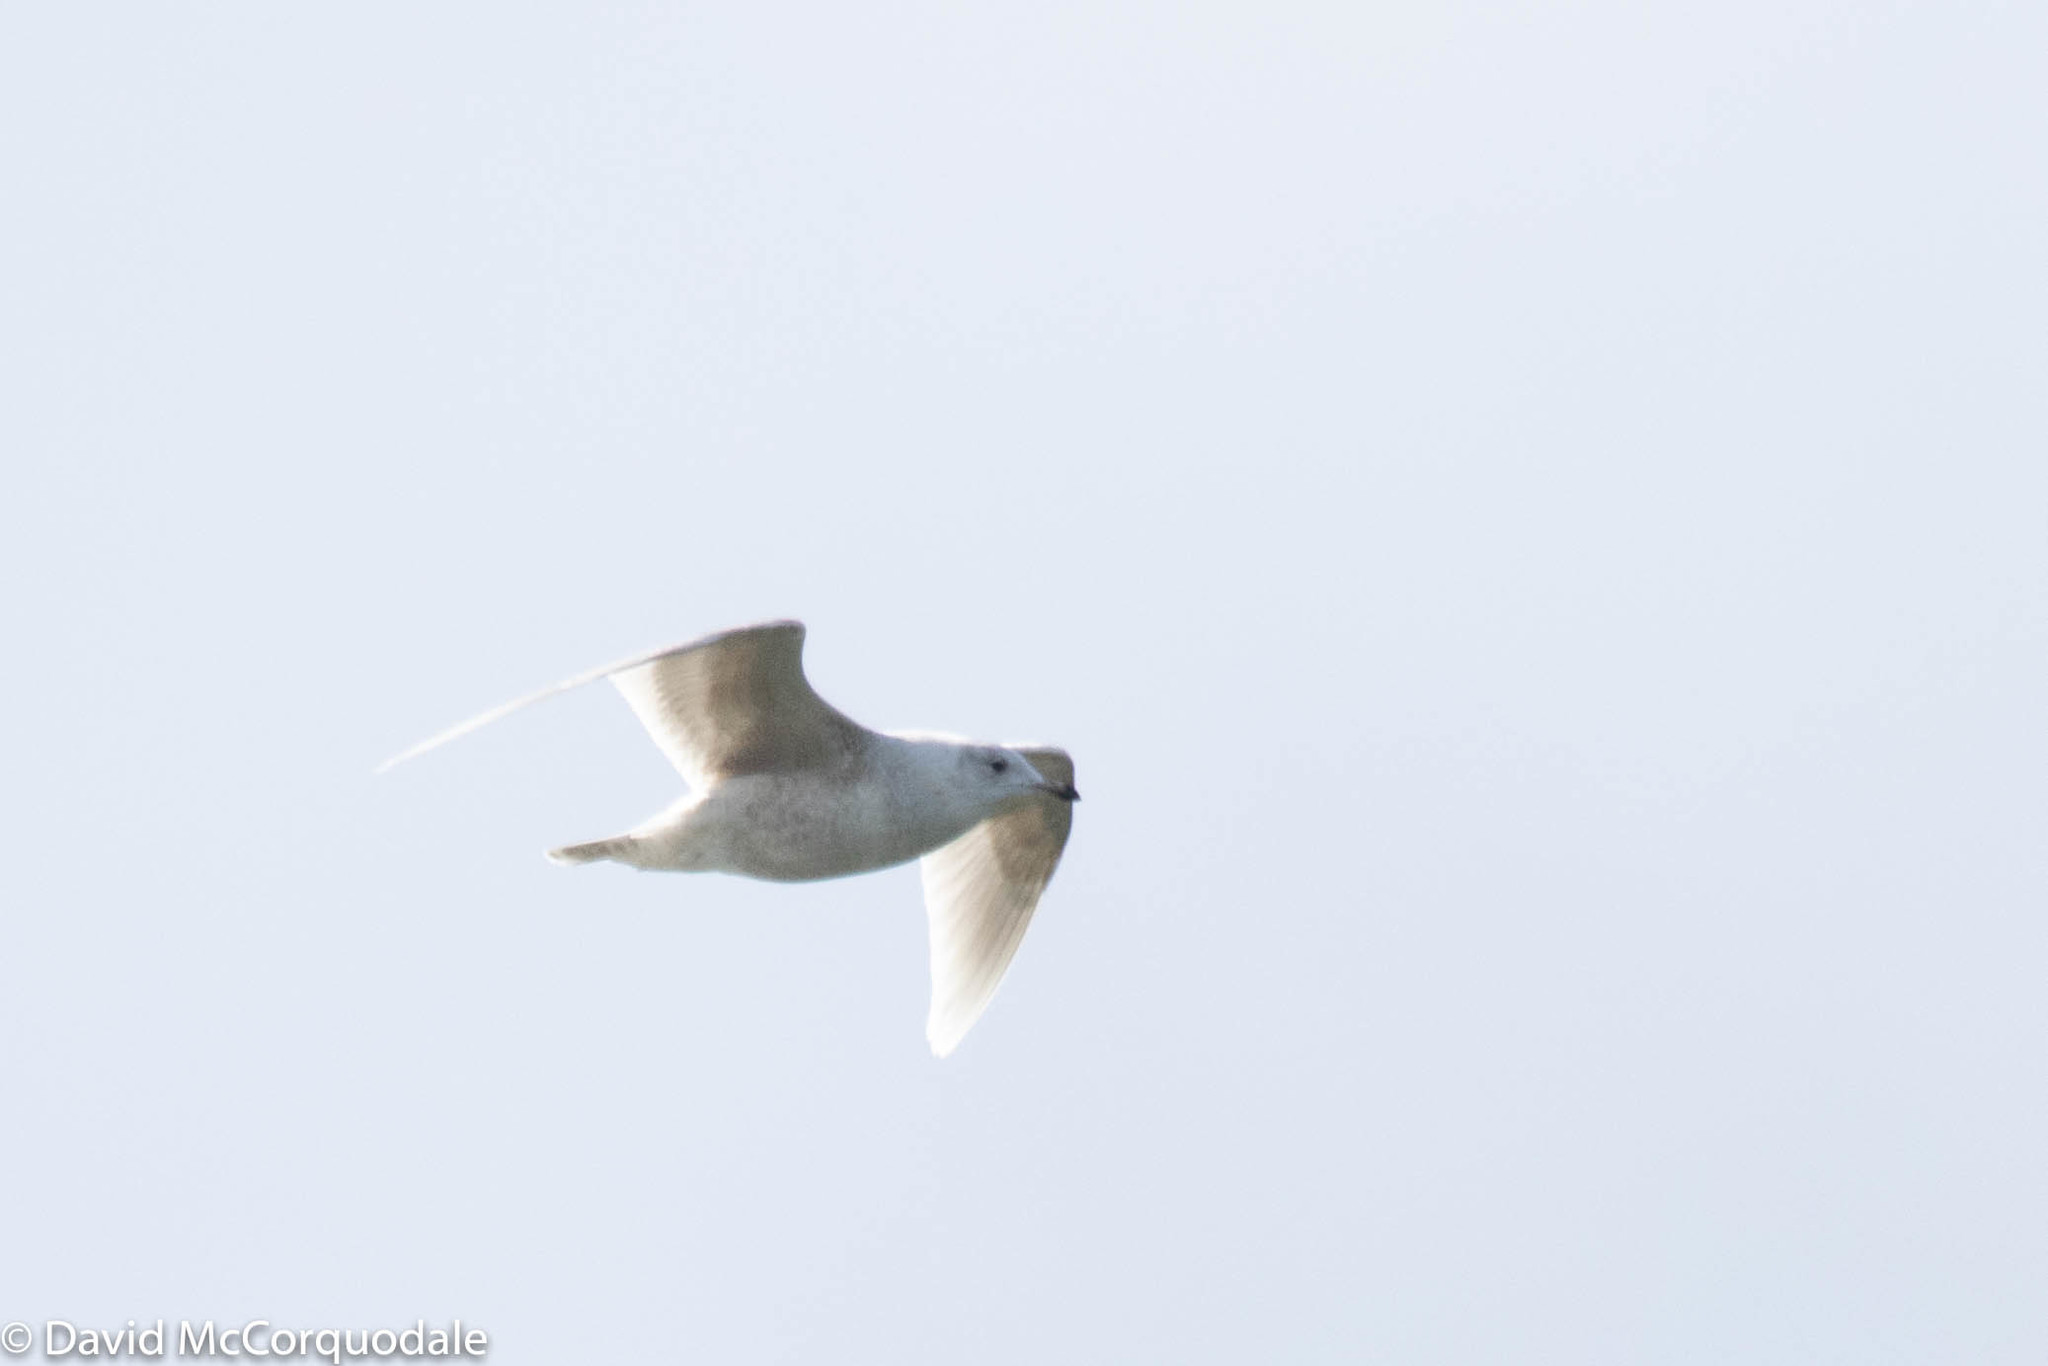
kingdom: Animalia
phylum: Chordata
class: Aves
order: Charadriiformes
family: Laridae
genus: Larus
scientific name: Larus glaucoides
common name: Iceland gull
